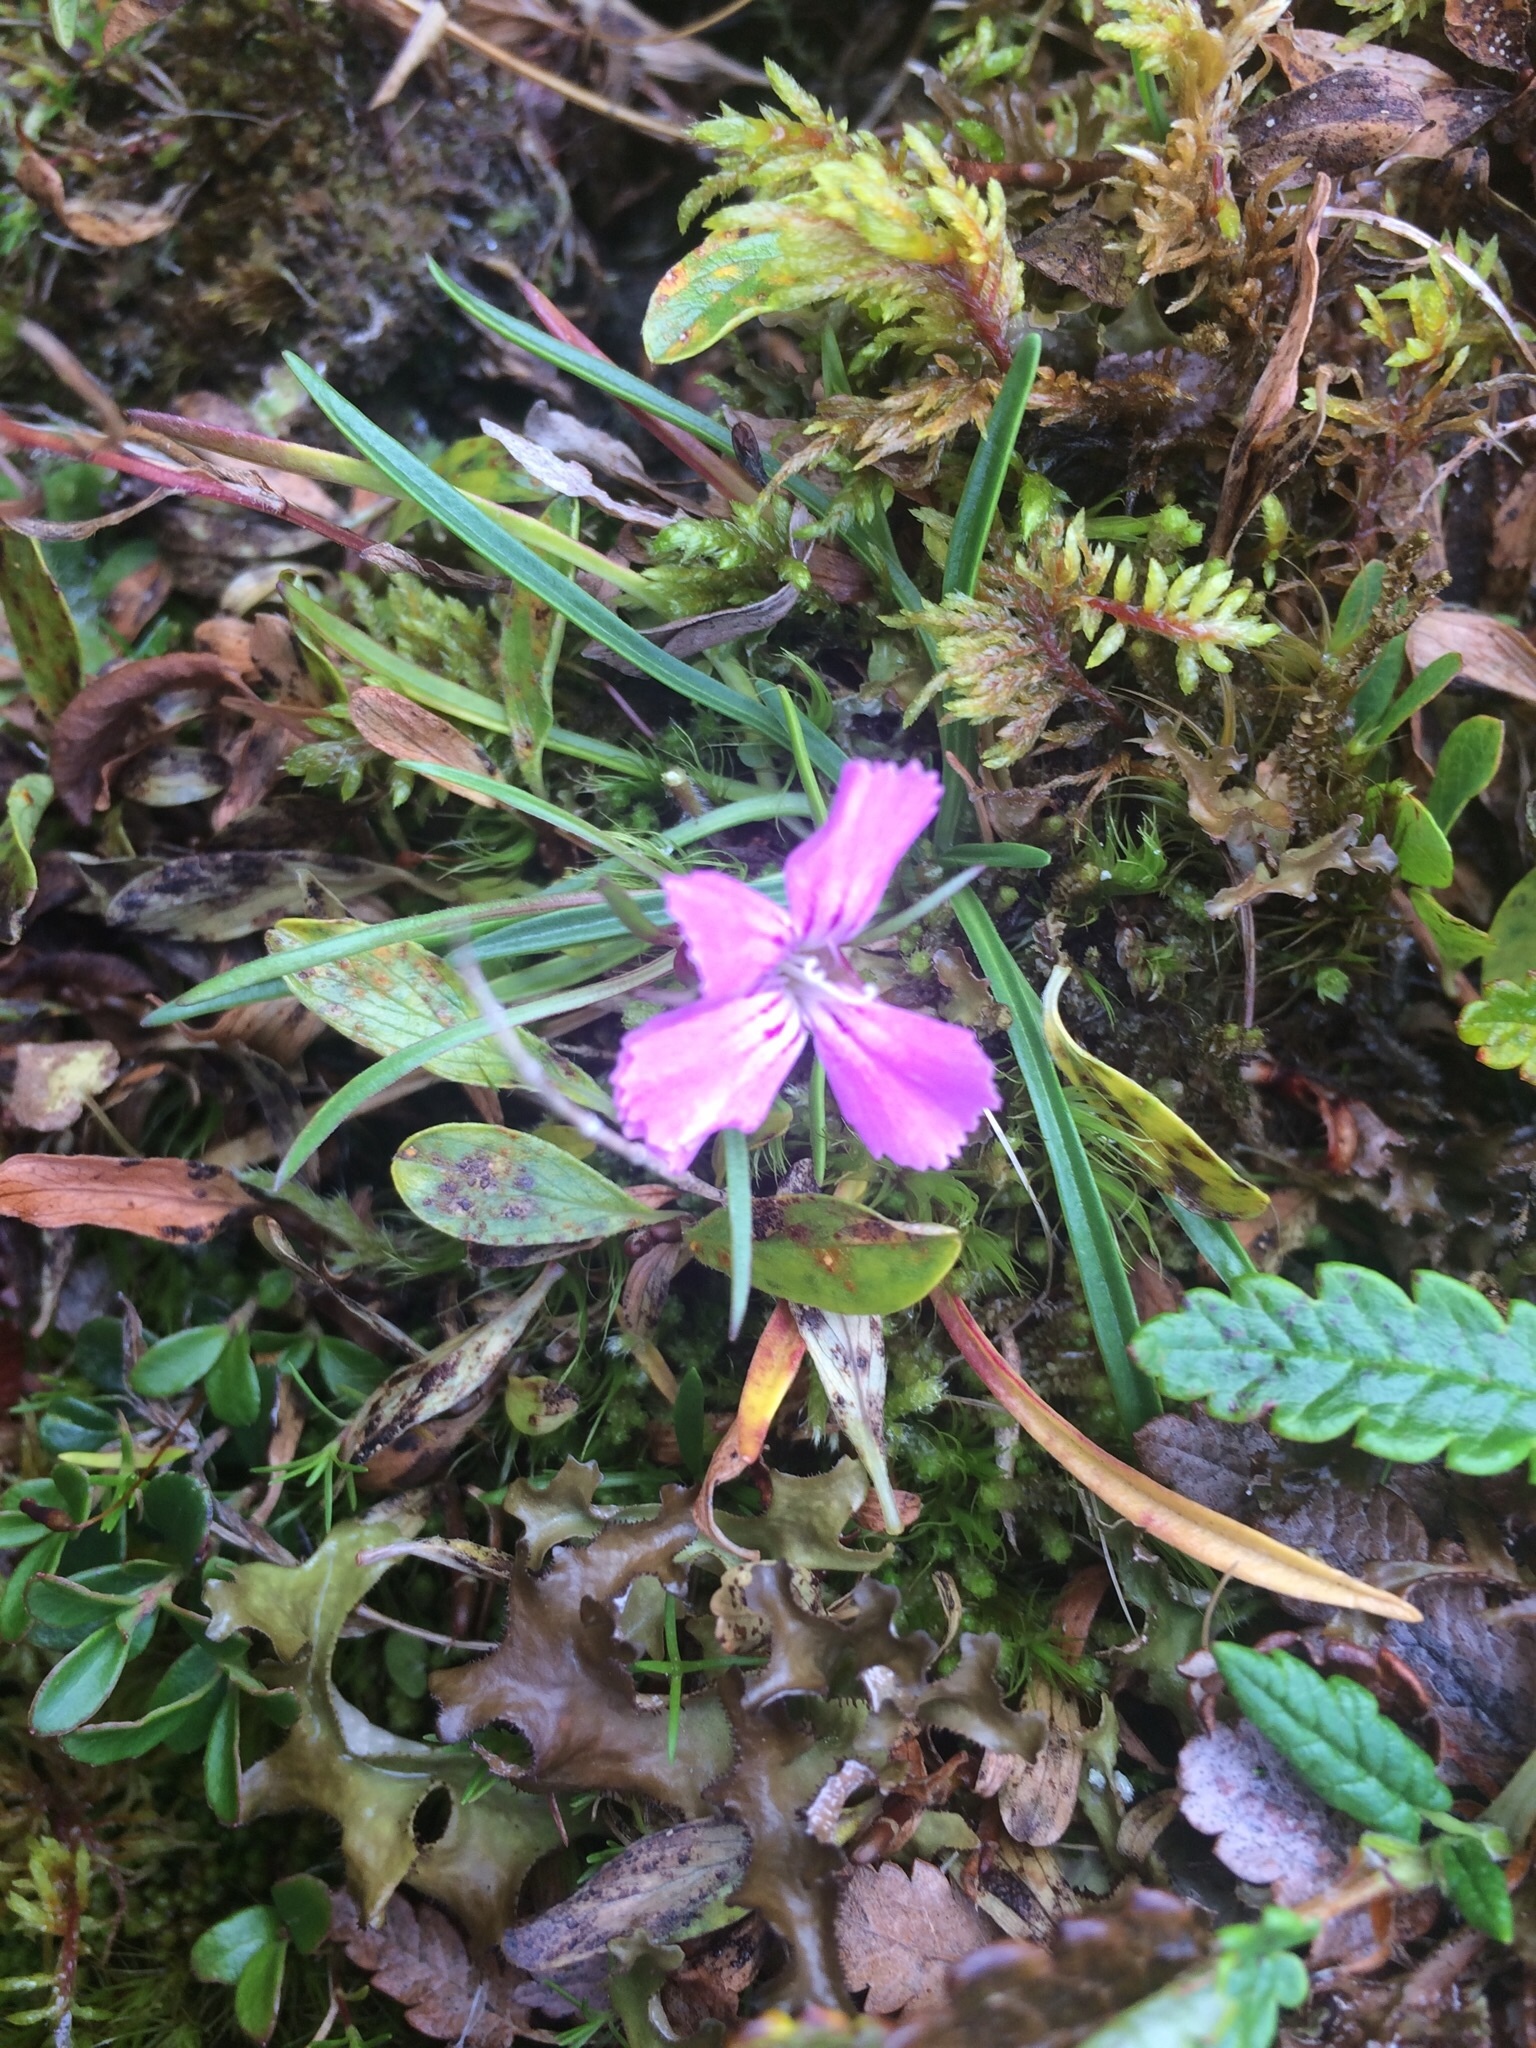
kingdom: Plantae
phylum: Tracheophyta
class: Magnoliopsida
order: Caryophyllales
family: Caryophyllaceae
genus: Dianthus
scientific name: Dianthus glacialis
